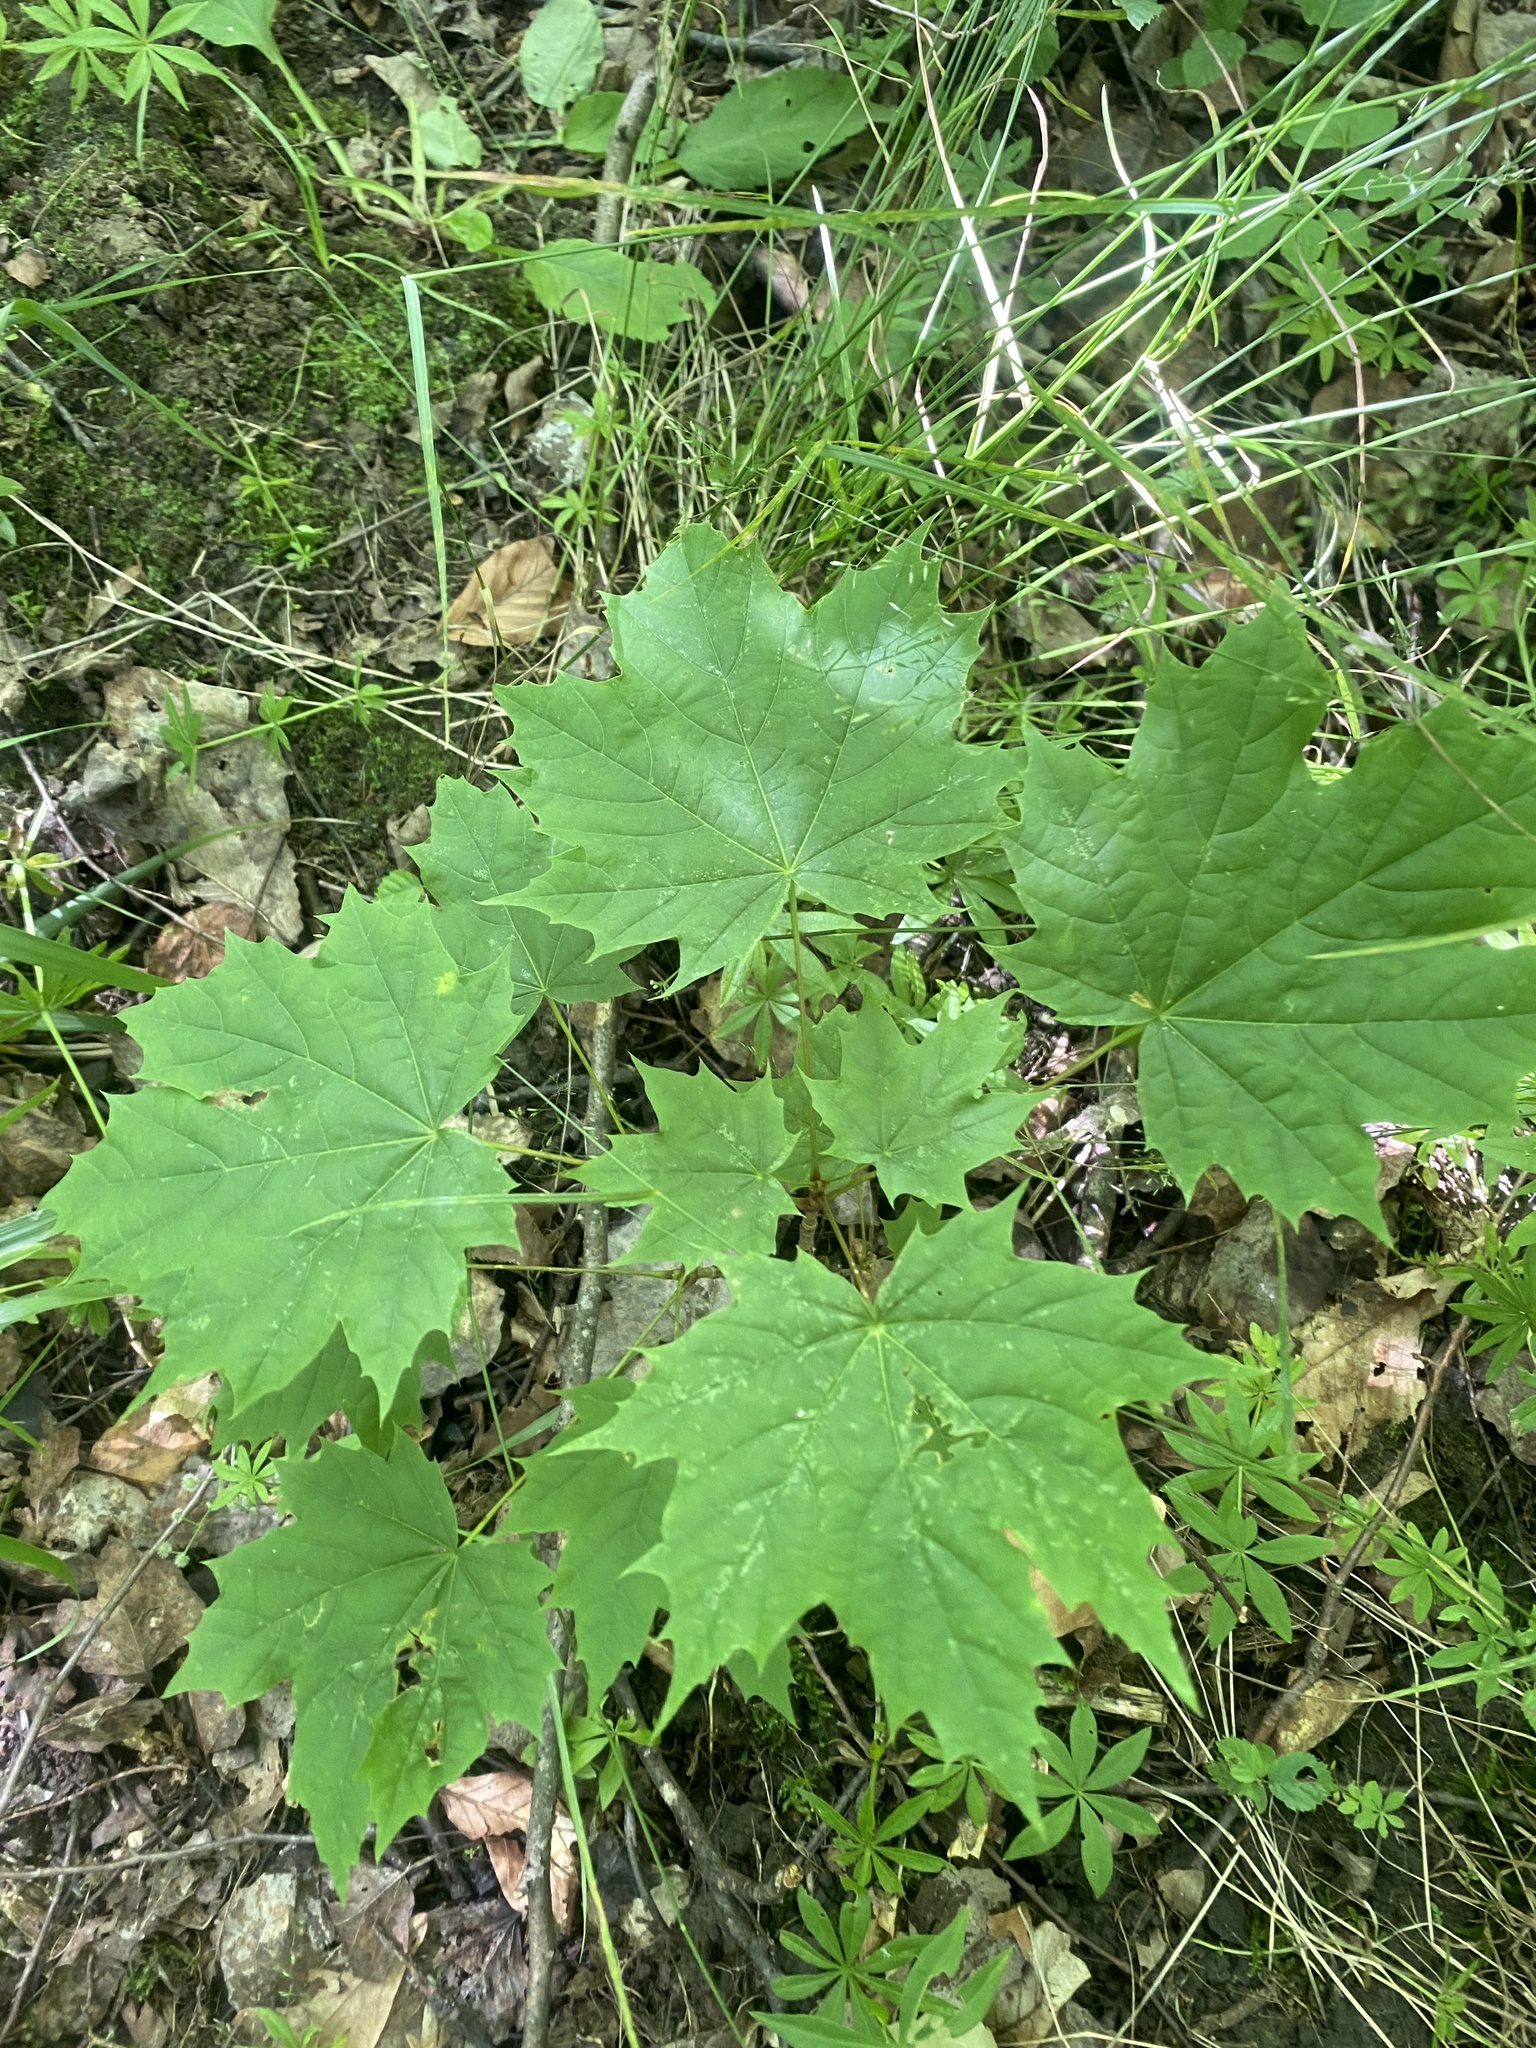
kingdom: Plantae
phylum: Tracheophyta
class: Magnoliopsida
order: Sapindales
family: Sapindaceae
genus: Acer
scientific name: Acer platanoides
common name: Norway maple
